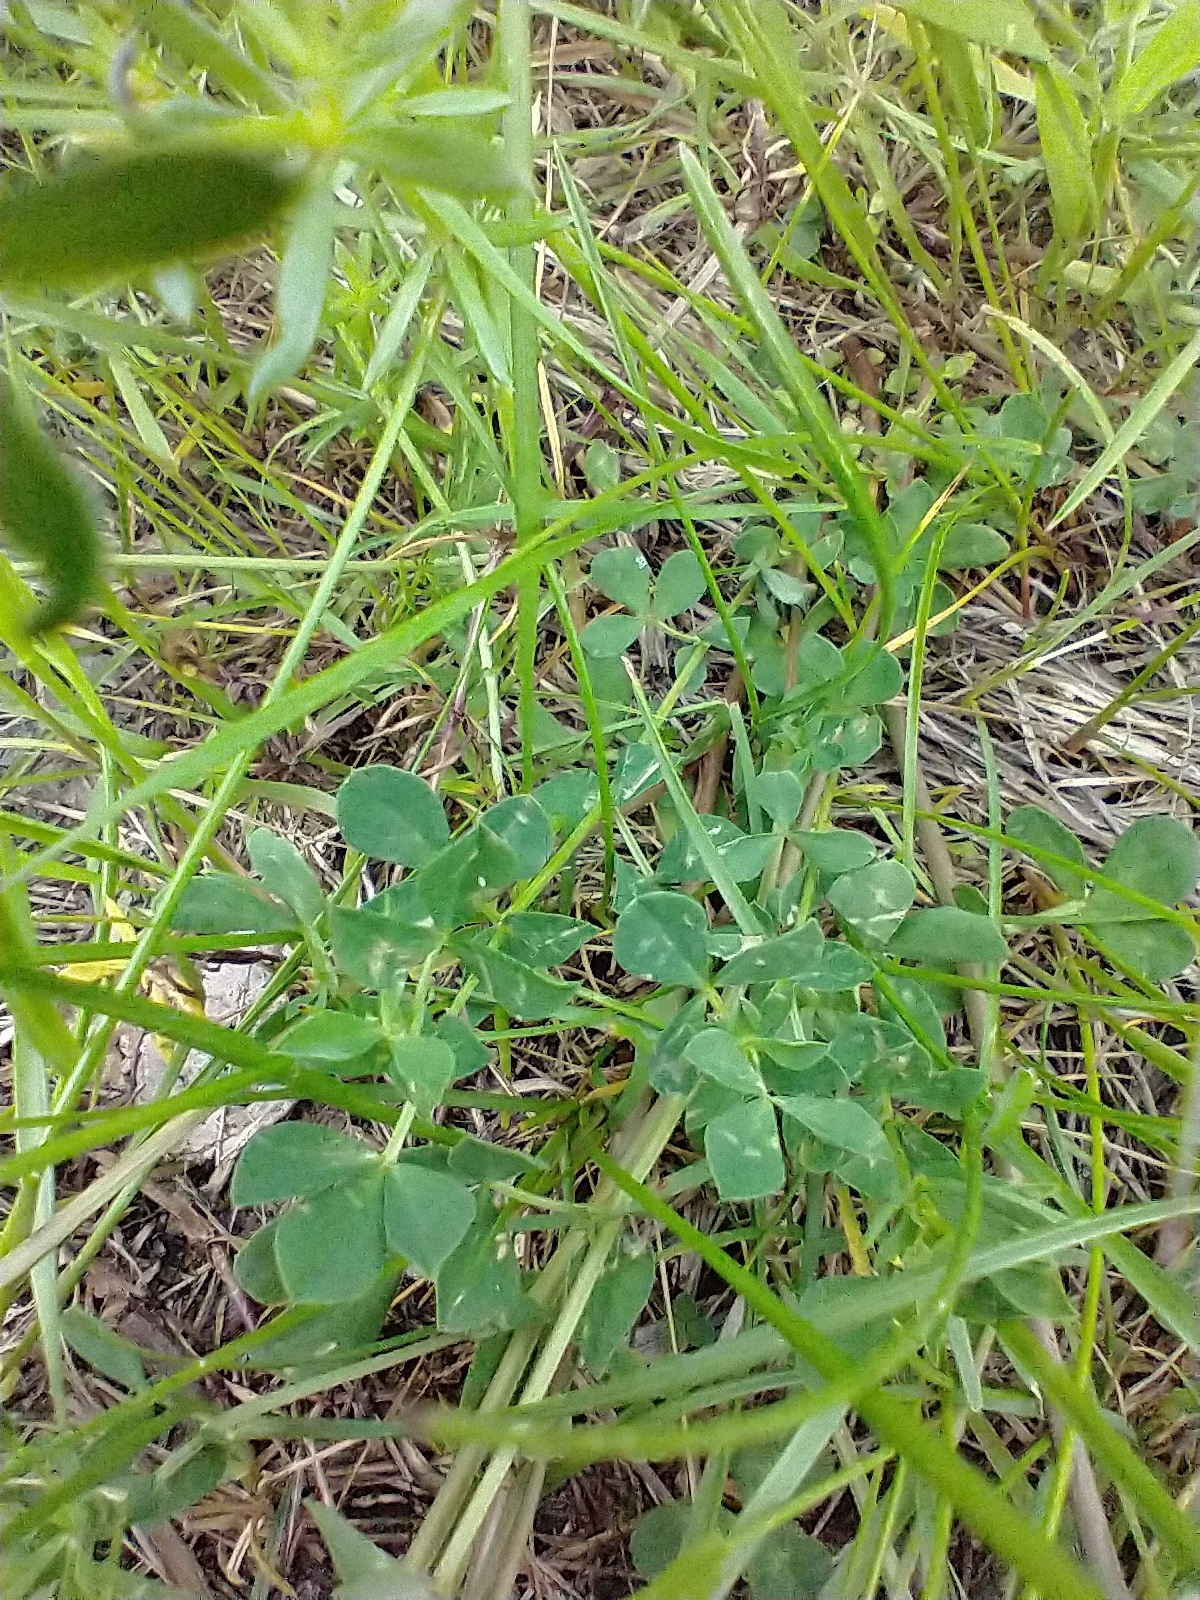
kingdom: Plantae
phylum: Tracheophyta
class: Magnoliopsida
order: Fabales
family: Fabaceae
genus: Lotus
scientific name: Lotus corniculatus
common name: Common bird's-foot-trefoil
